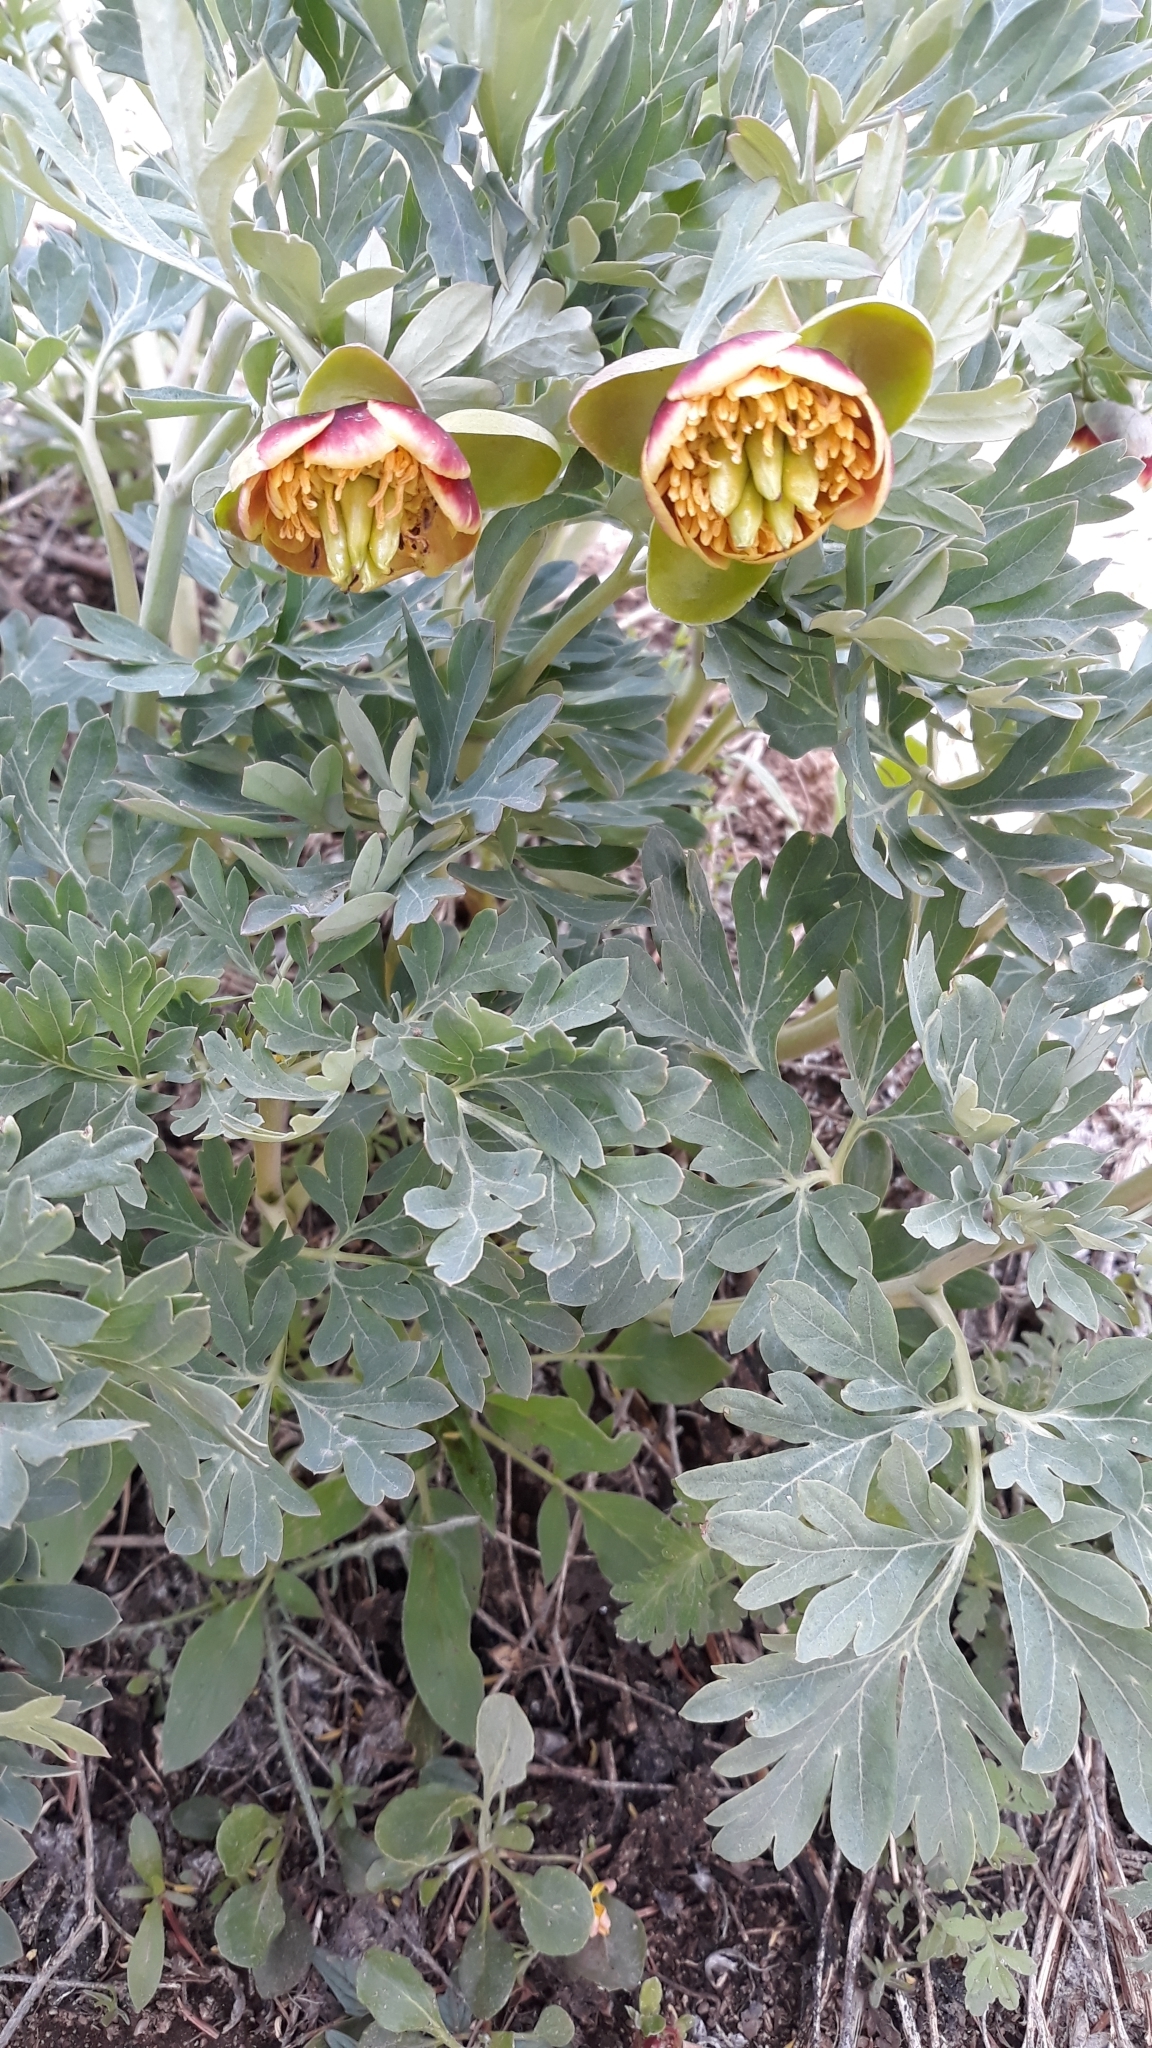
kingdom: Plantae
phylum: Tracheophyta
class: Magnoliopsida
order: Saxifragales
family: Paeoniaceae
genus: Paeonia
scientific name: Paeonia brownii
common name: Brown's peony
